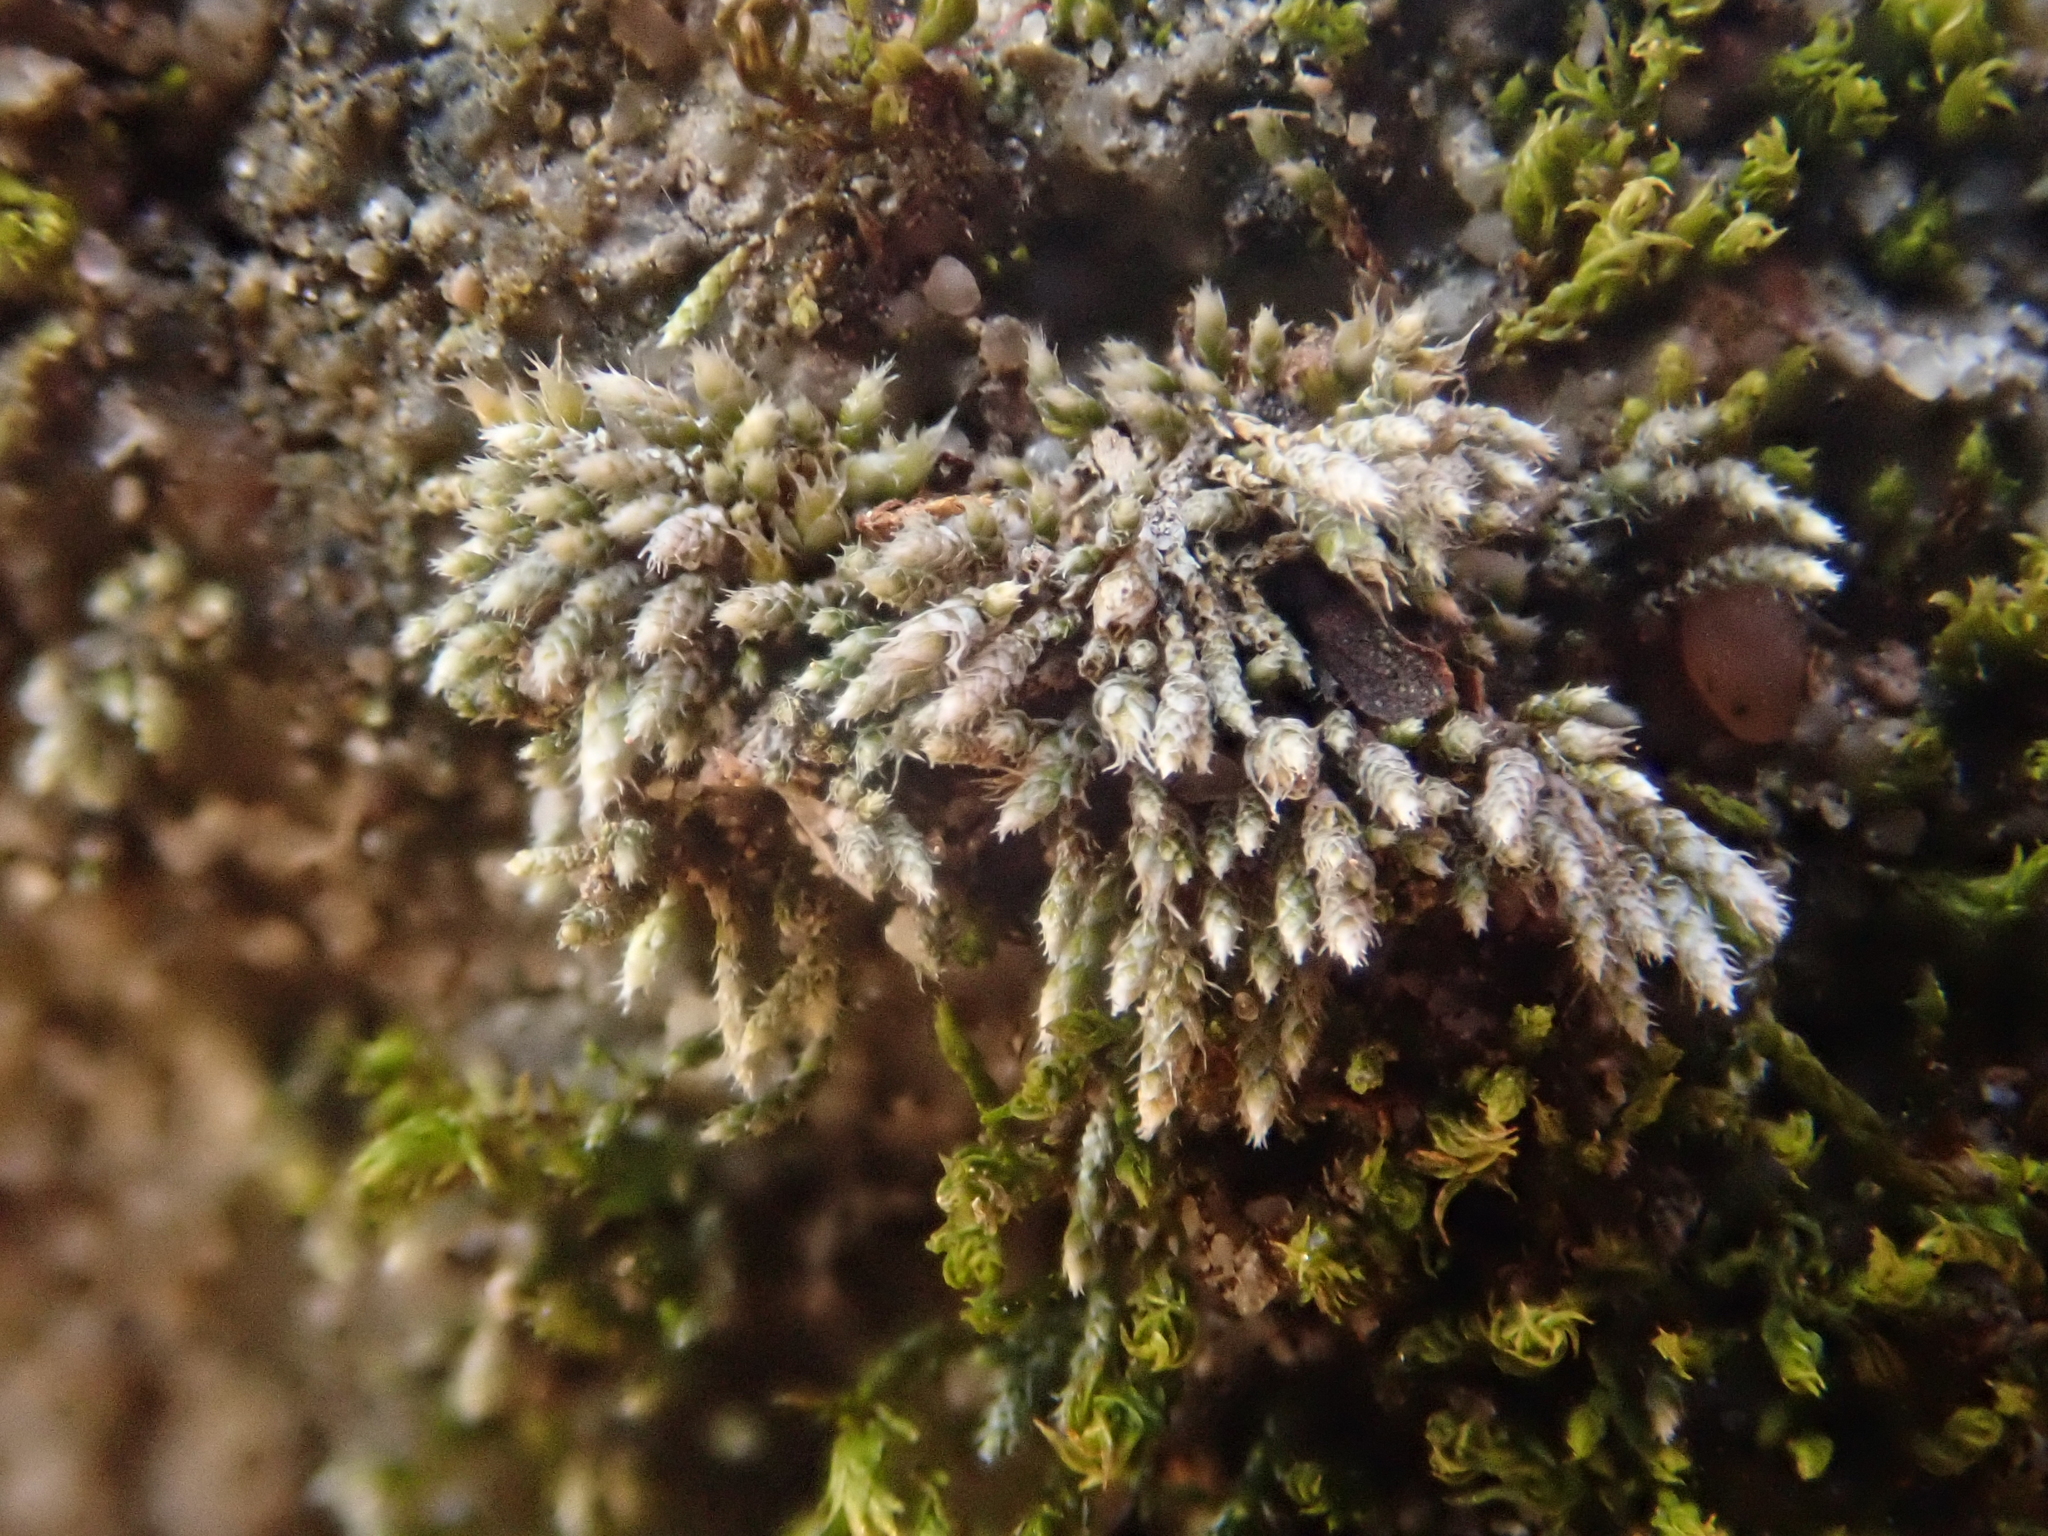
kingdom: Plantae
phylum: Bryophyta
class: Bryopsida
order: Bryales
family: Bryaceae
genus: Bryum
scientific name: Bryum argenteum
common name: Silver-moss
